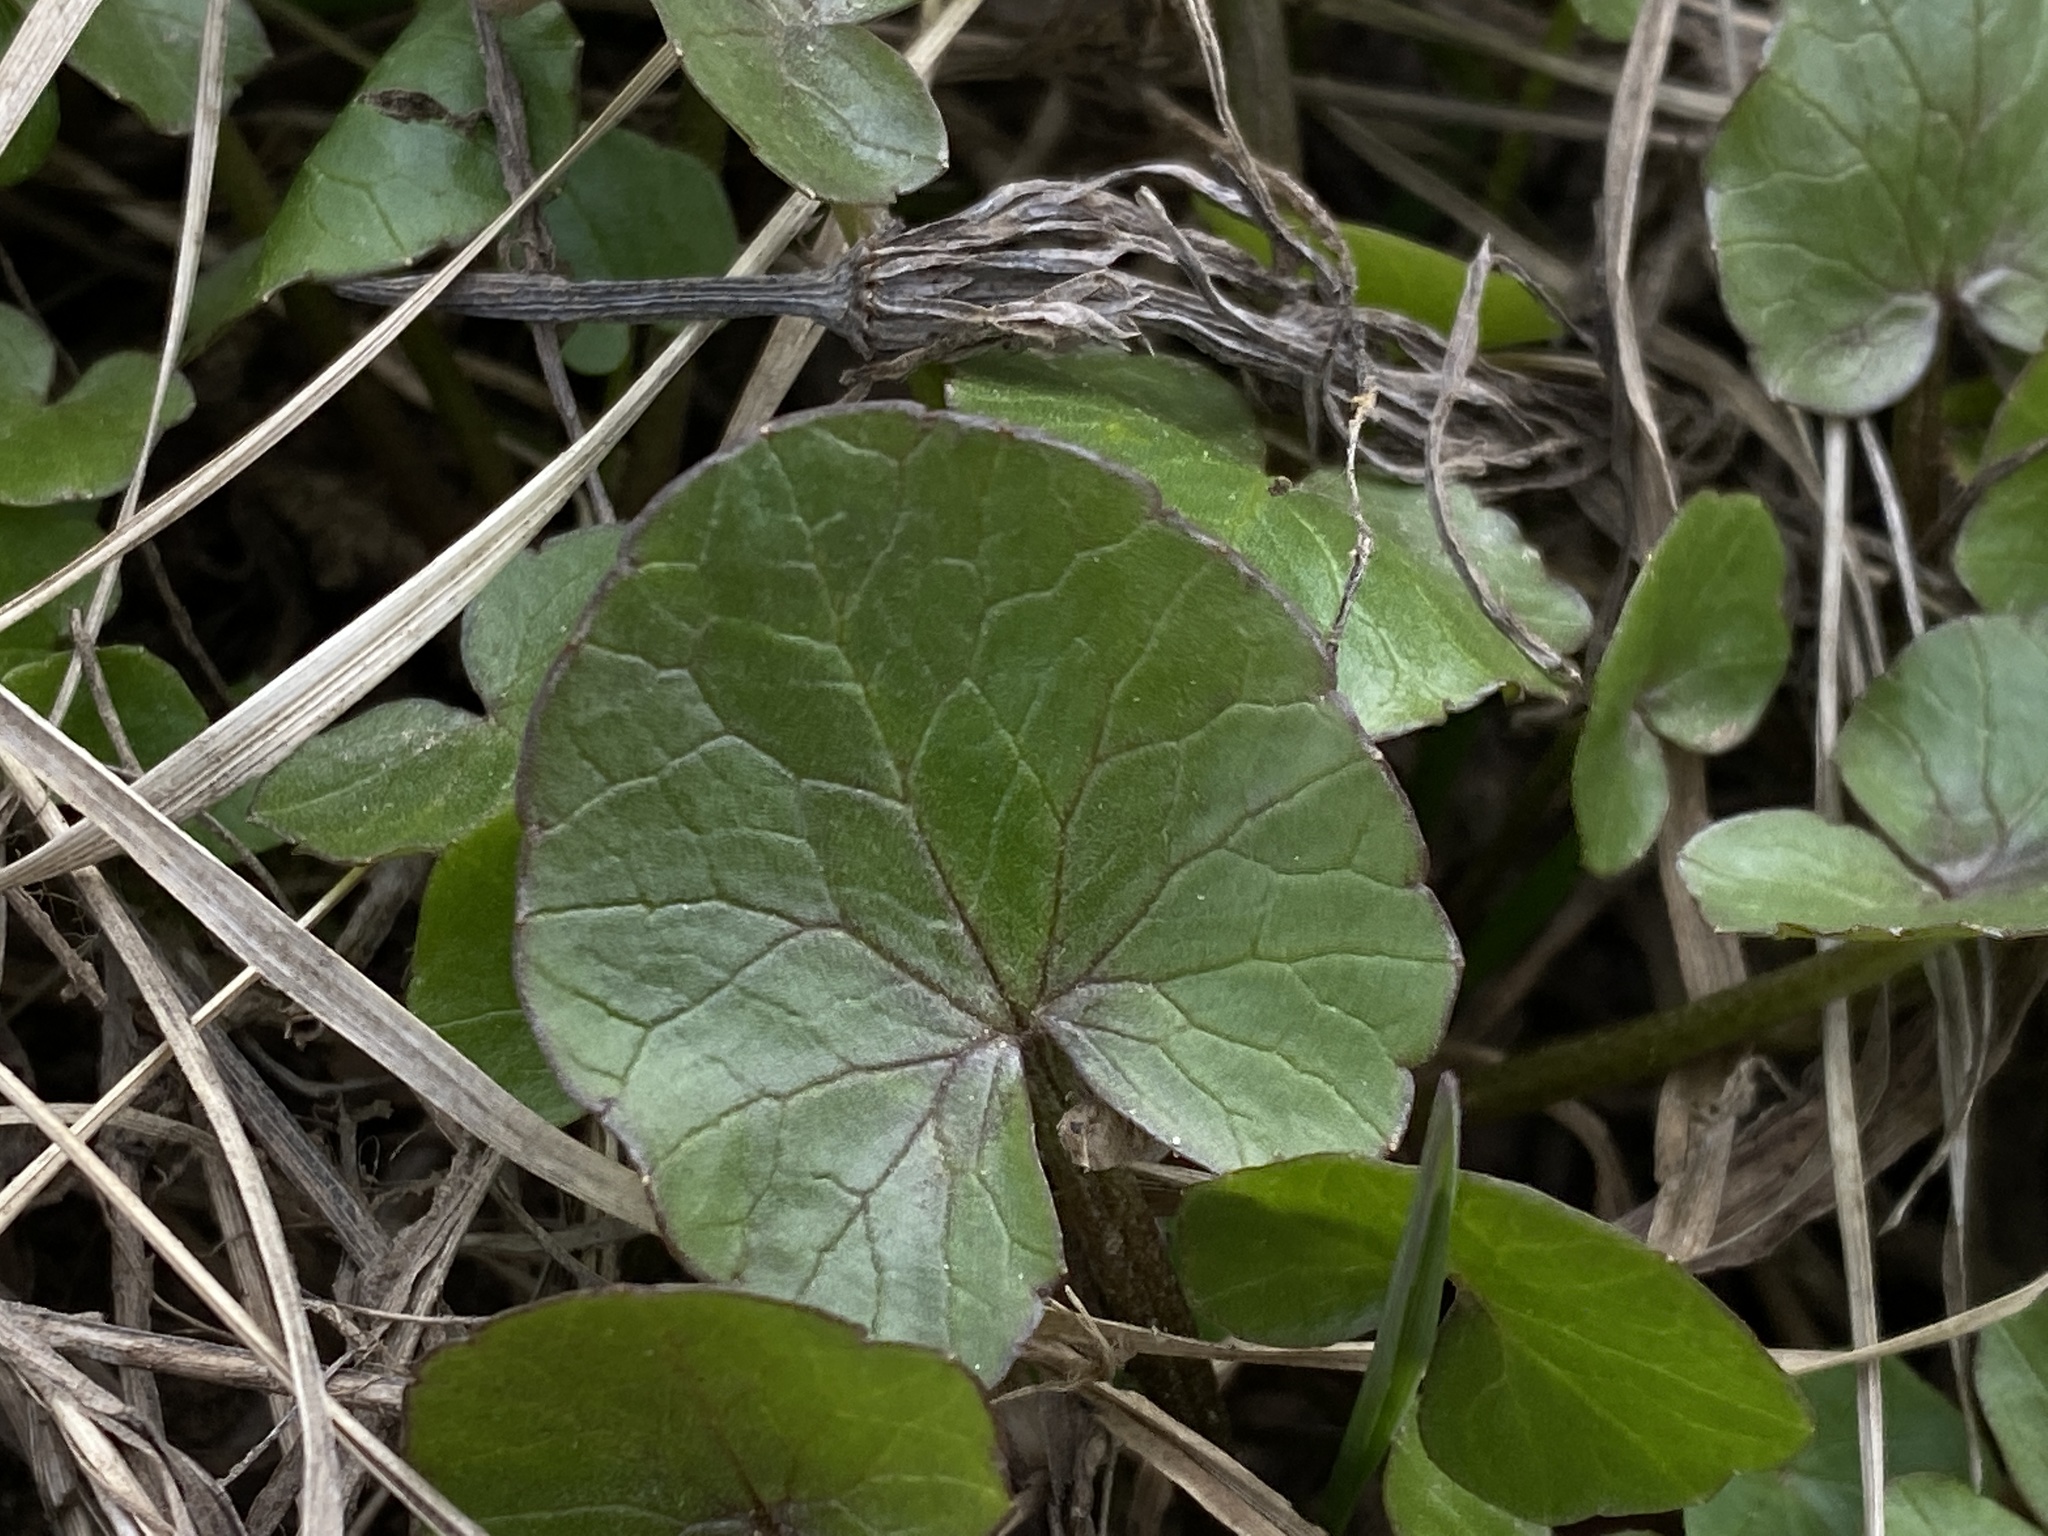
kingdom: Plantae
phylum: Tracheophyta
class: Magnoliopsida
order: Ranunculales
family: Ranunculaceae
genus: Ficaria
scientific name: Ficaria verna
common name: Lesser celandine
